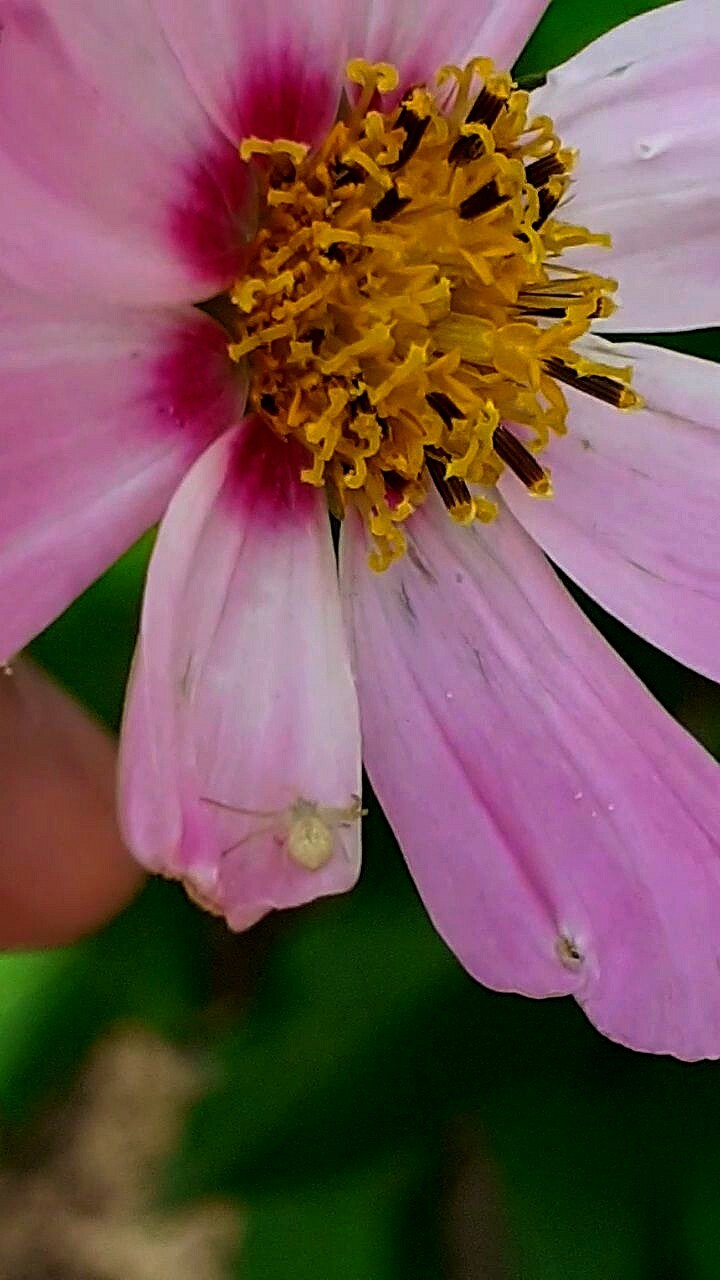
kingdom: Animalia
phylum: Arthropoda
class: Arachnida
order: Araneae
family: Thomisidae
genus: Ebrechtella
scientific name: Ebrechtella tricuspidata
